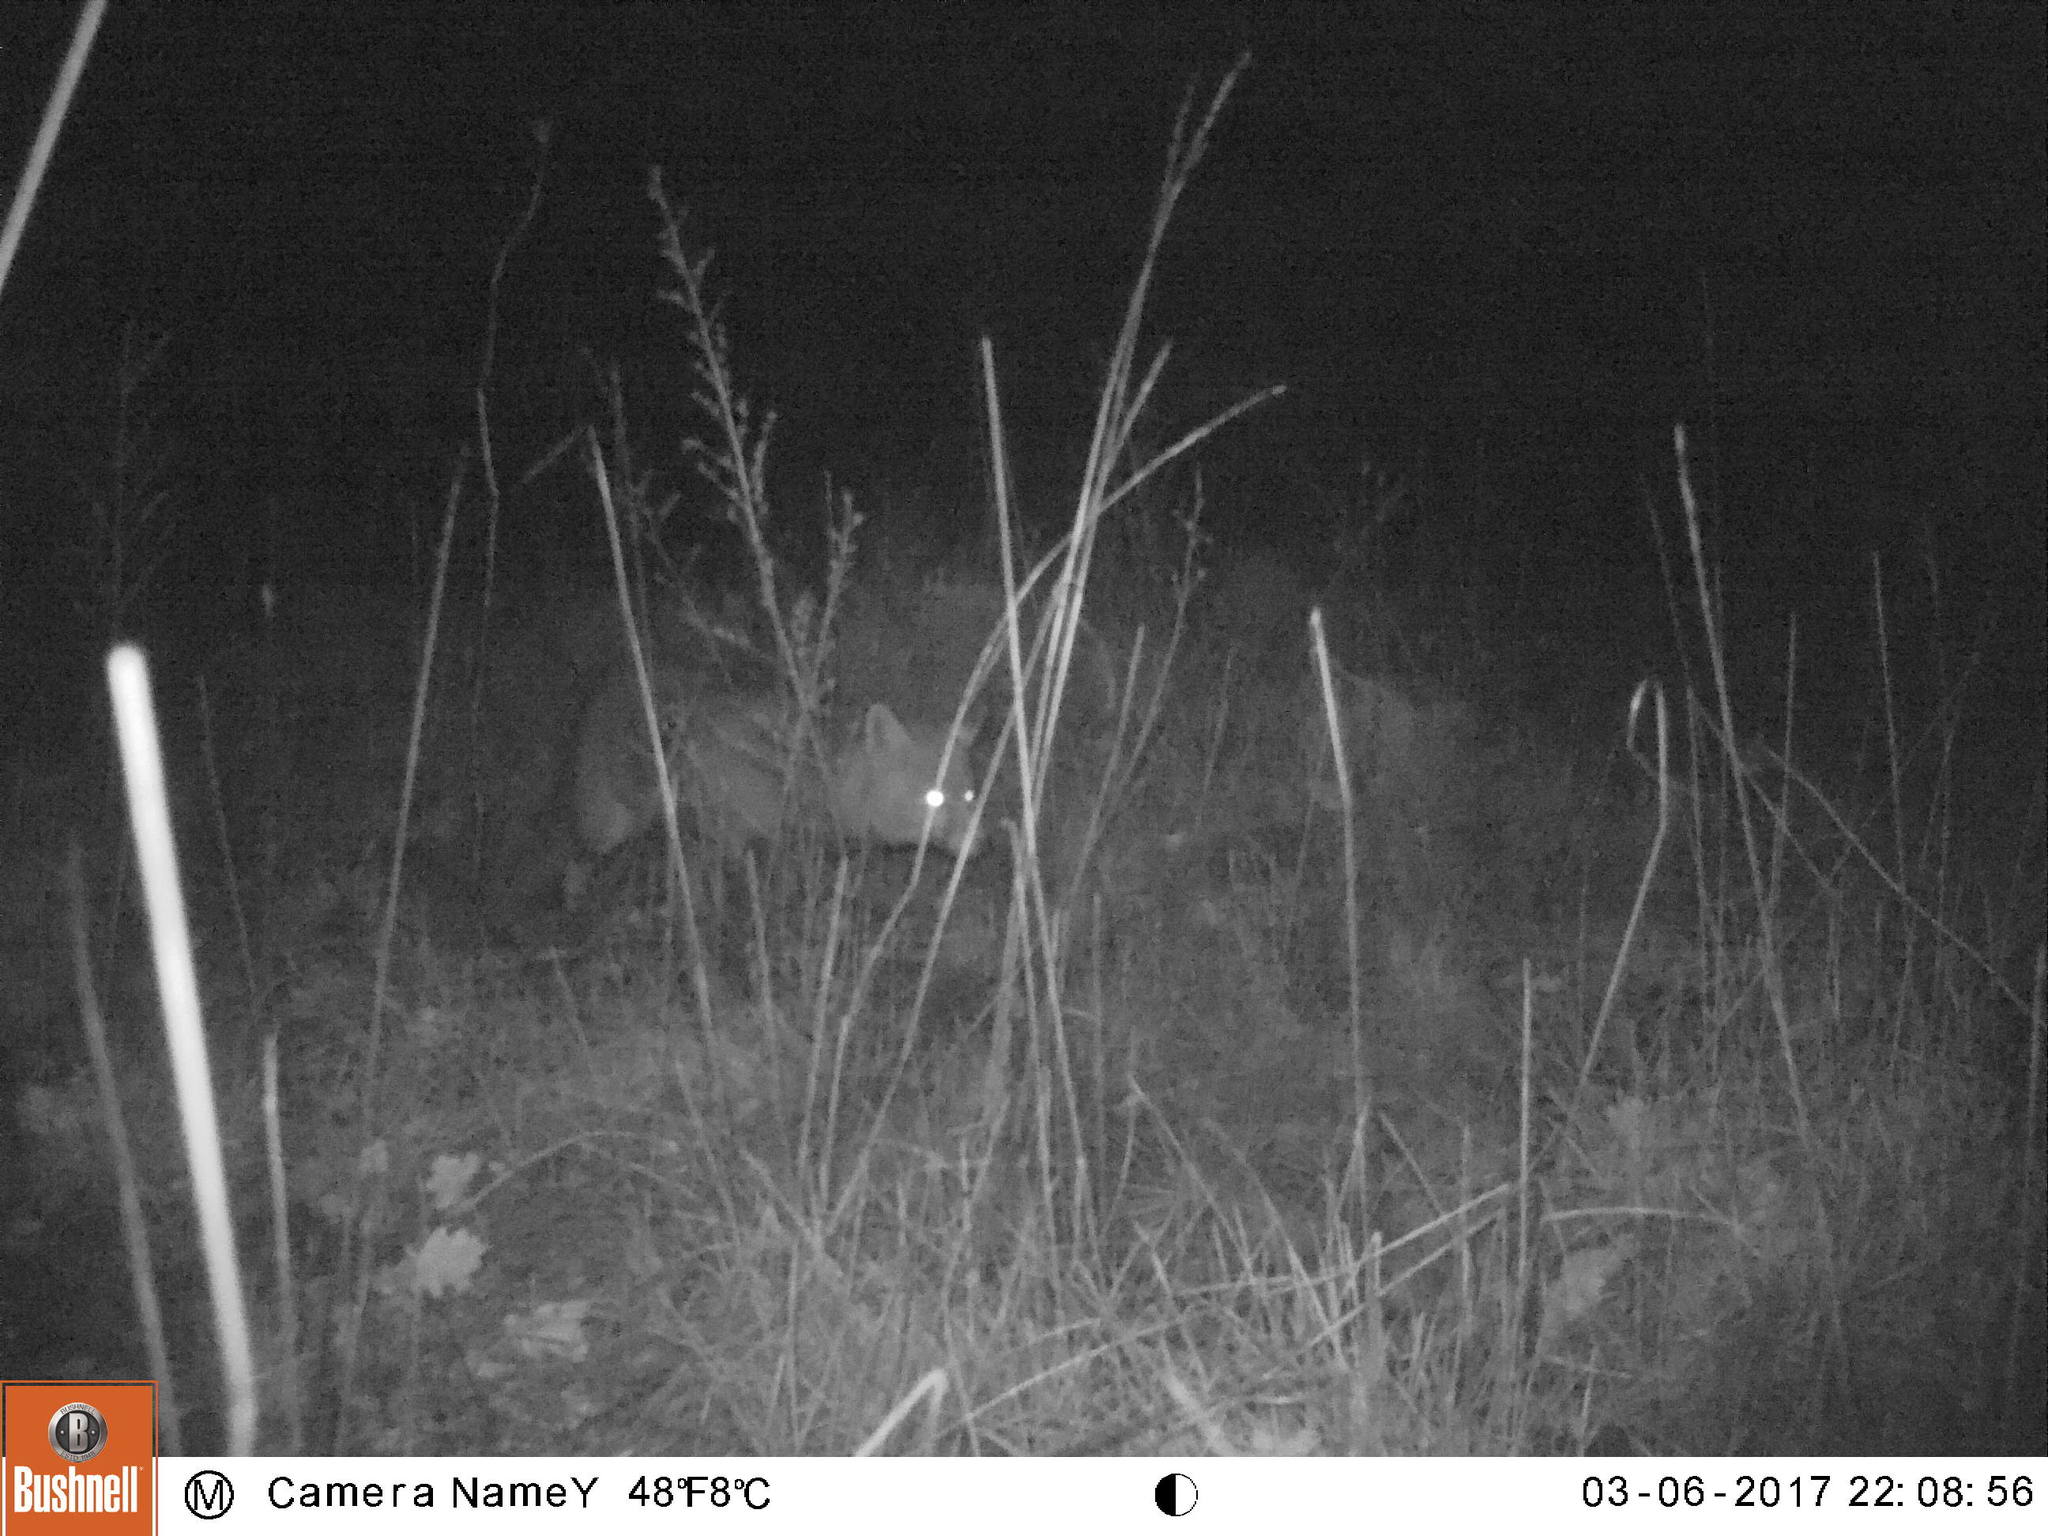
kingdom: Animalia
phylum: Chordata
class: Mammalia
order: Carnivora
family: Canidae
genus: Vulpes
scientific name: Vulpes vulpes
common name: Red fox
